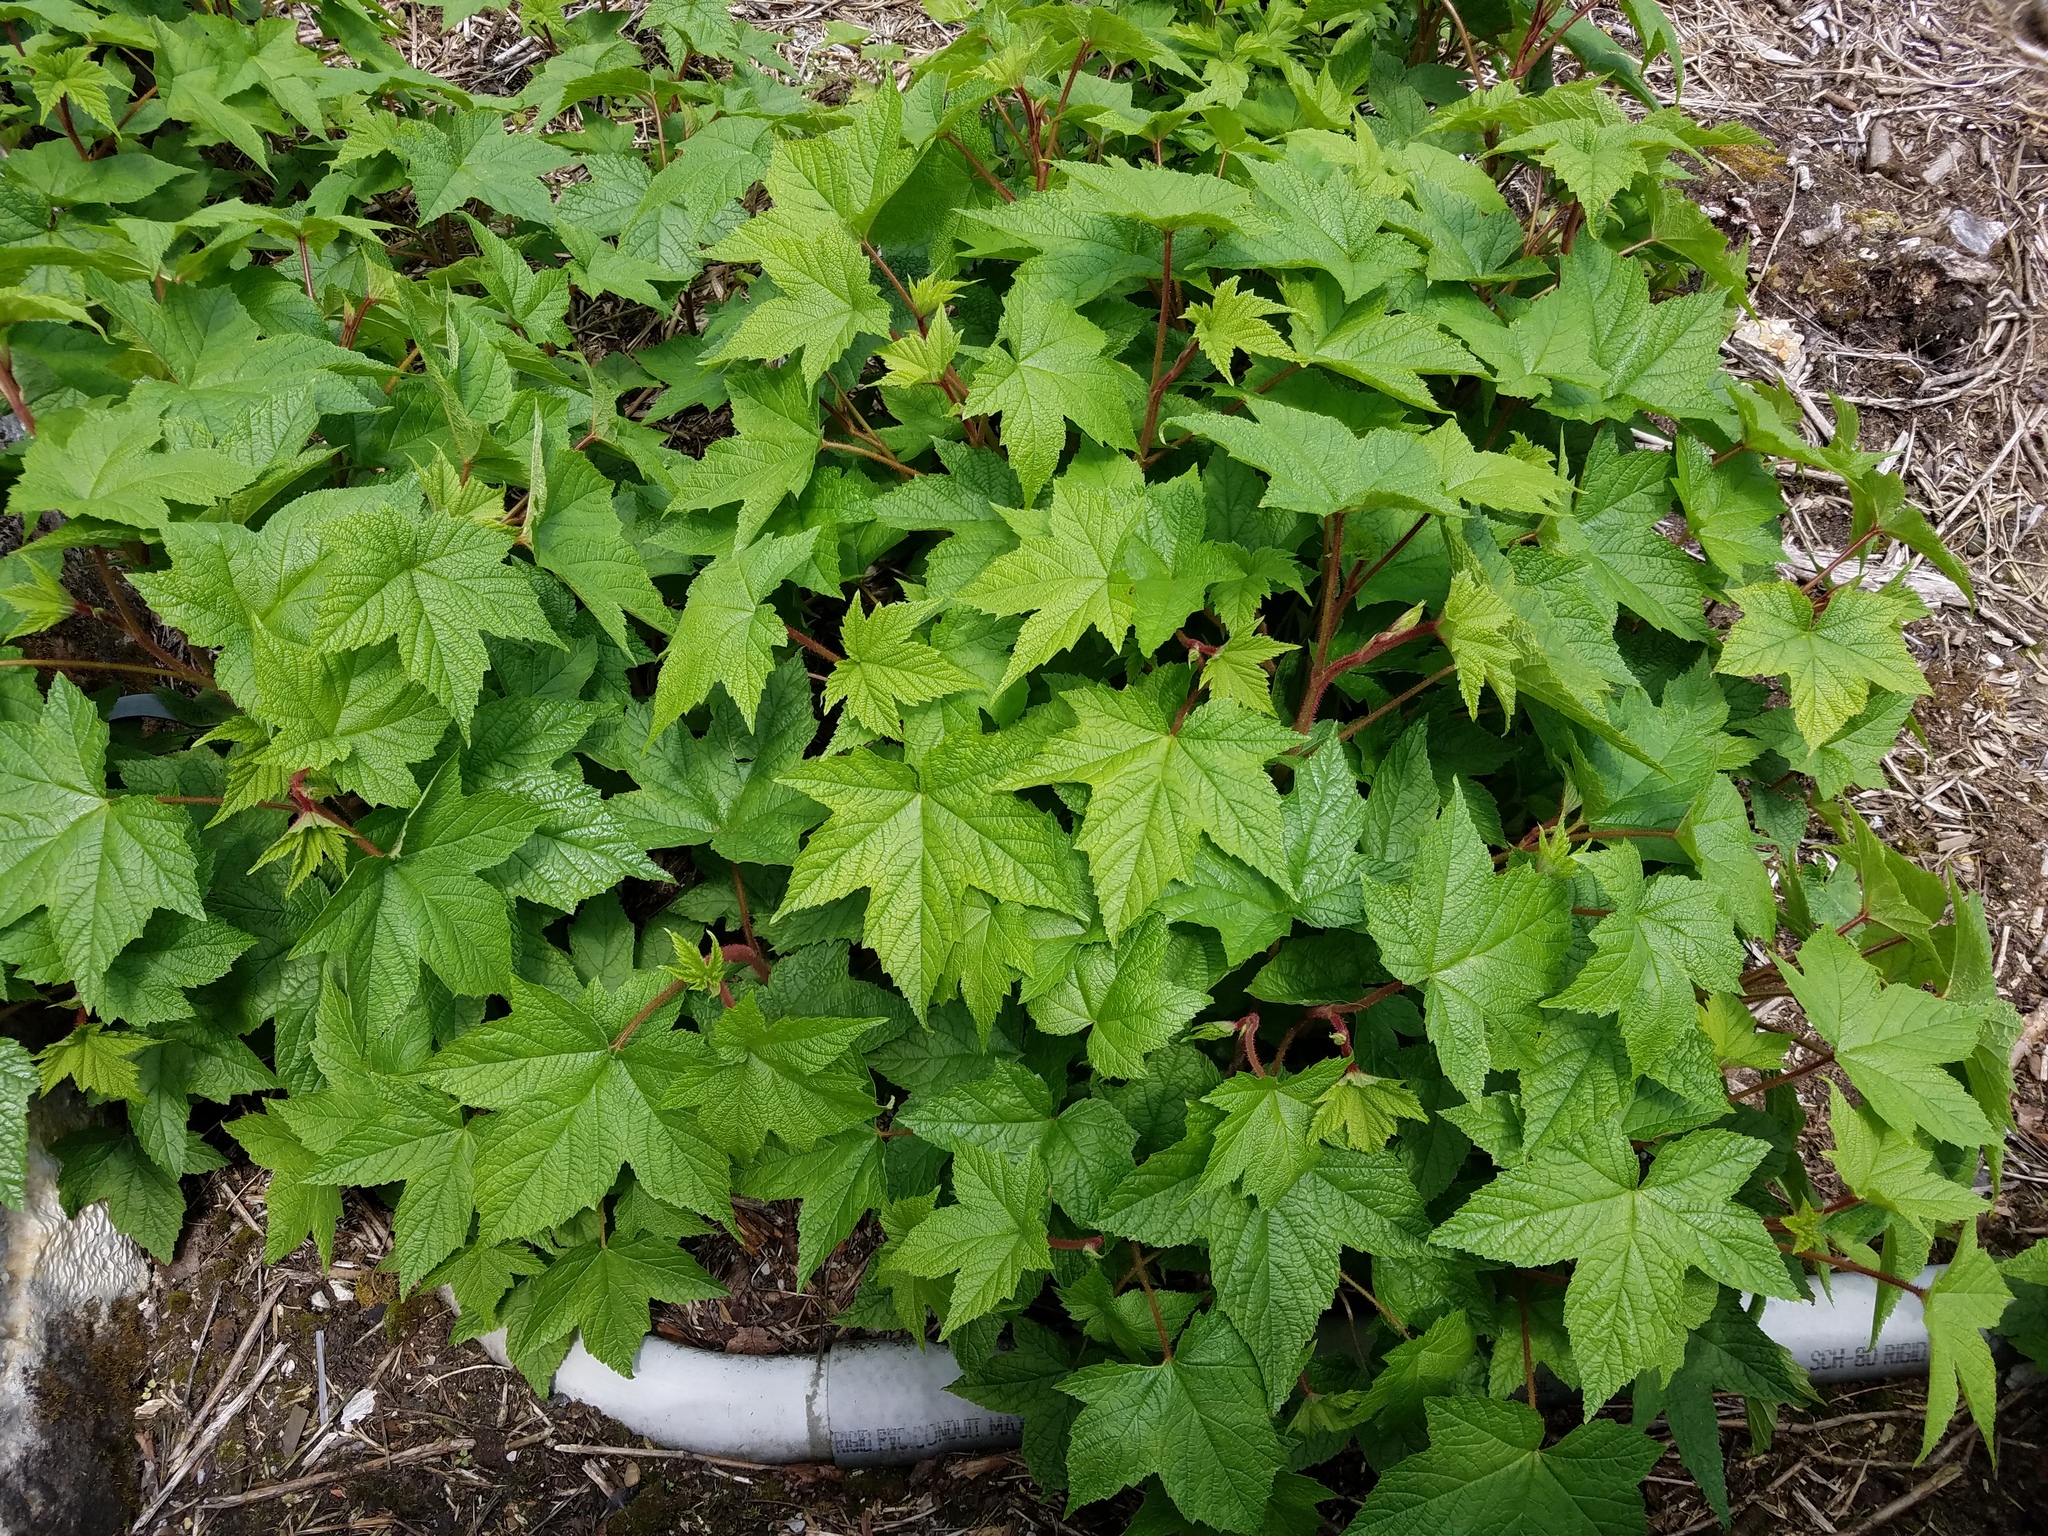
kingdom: Plantae
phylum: Tracheophyta
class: Magnoliopsida
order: Rosales
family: Rosaceae
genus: Rubus
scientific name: Rubus odoratus
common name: Purple-flowered raspberry
